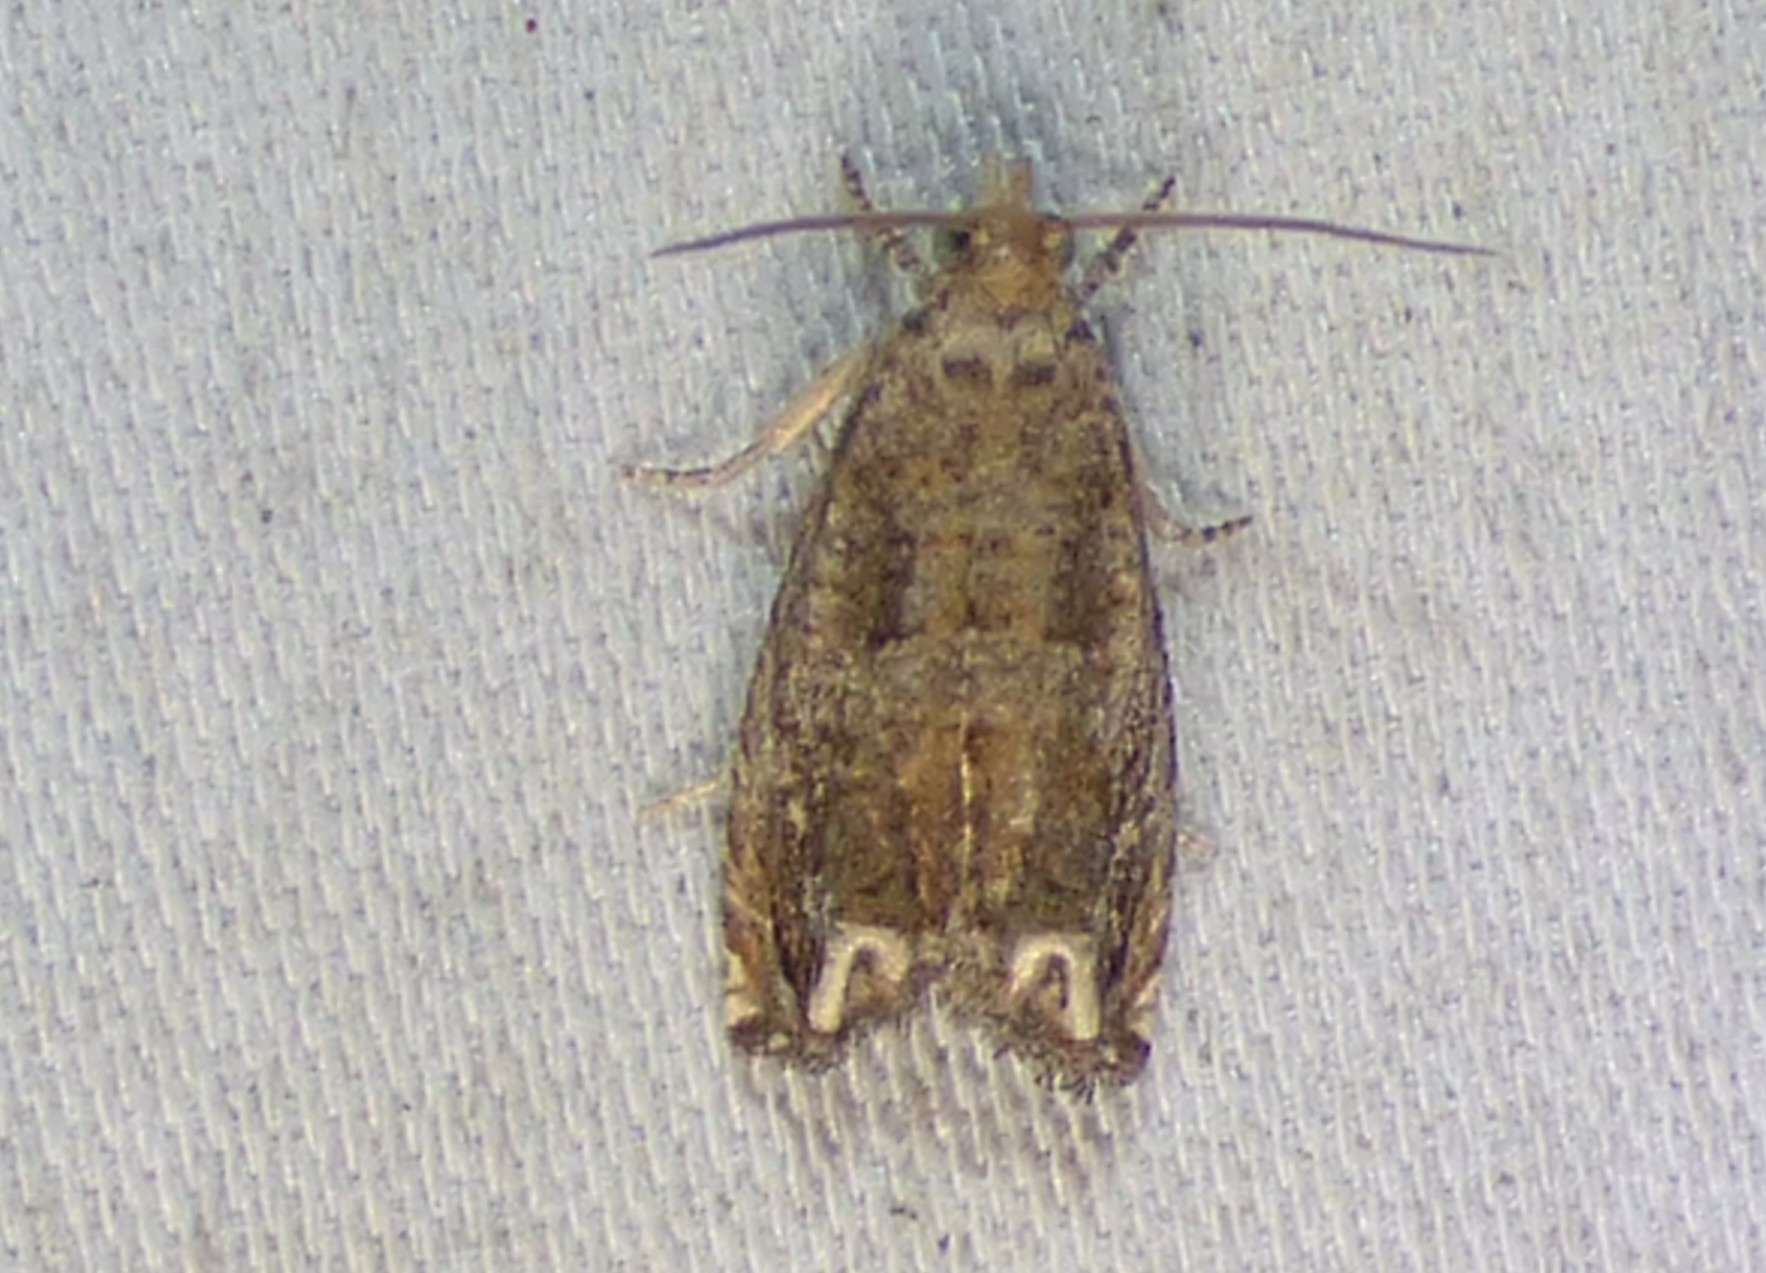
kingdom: Animalia
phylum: Arthropoda
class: Insecta
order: Lepidoptera
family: Tortricidae
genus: Epiblema
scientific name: Epiblema strenuana
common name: Ragweed borer moth
